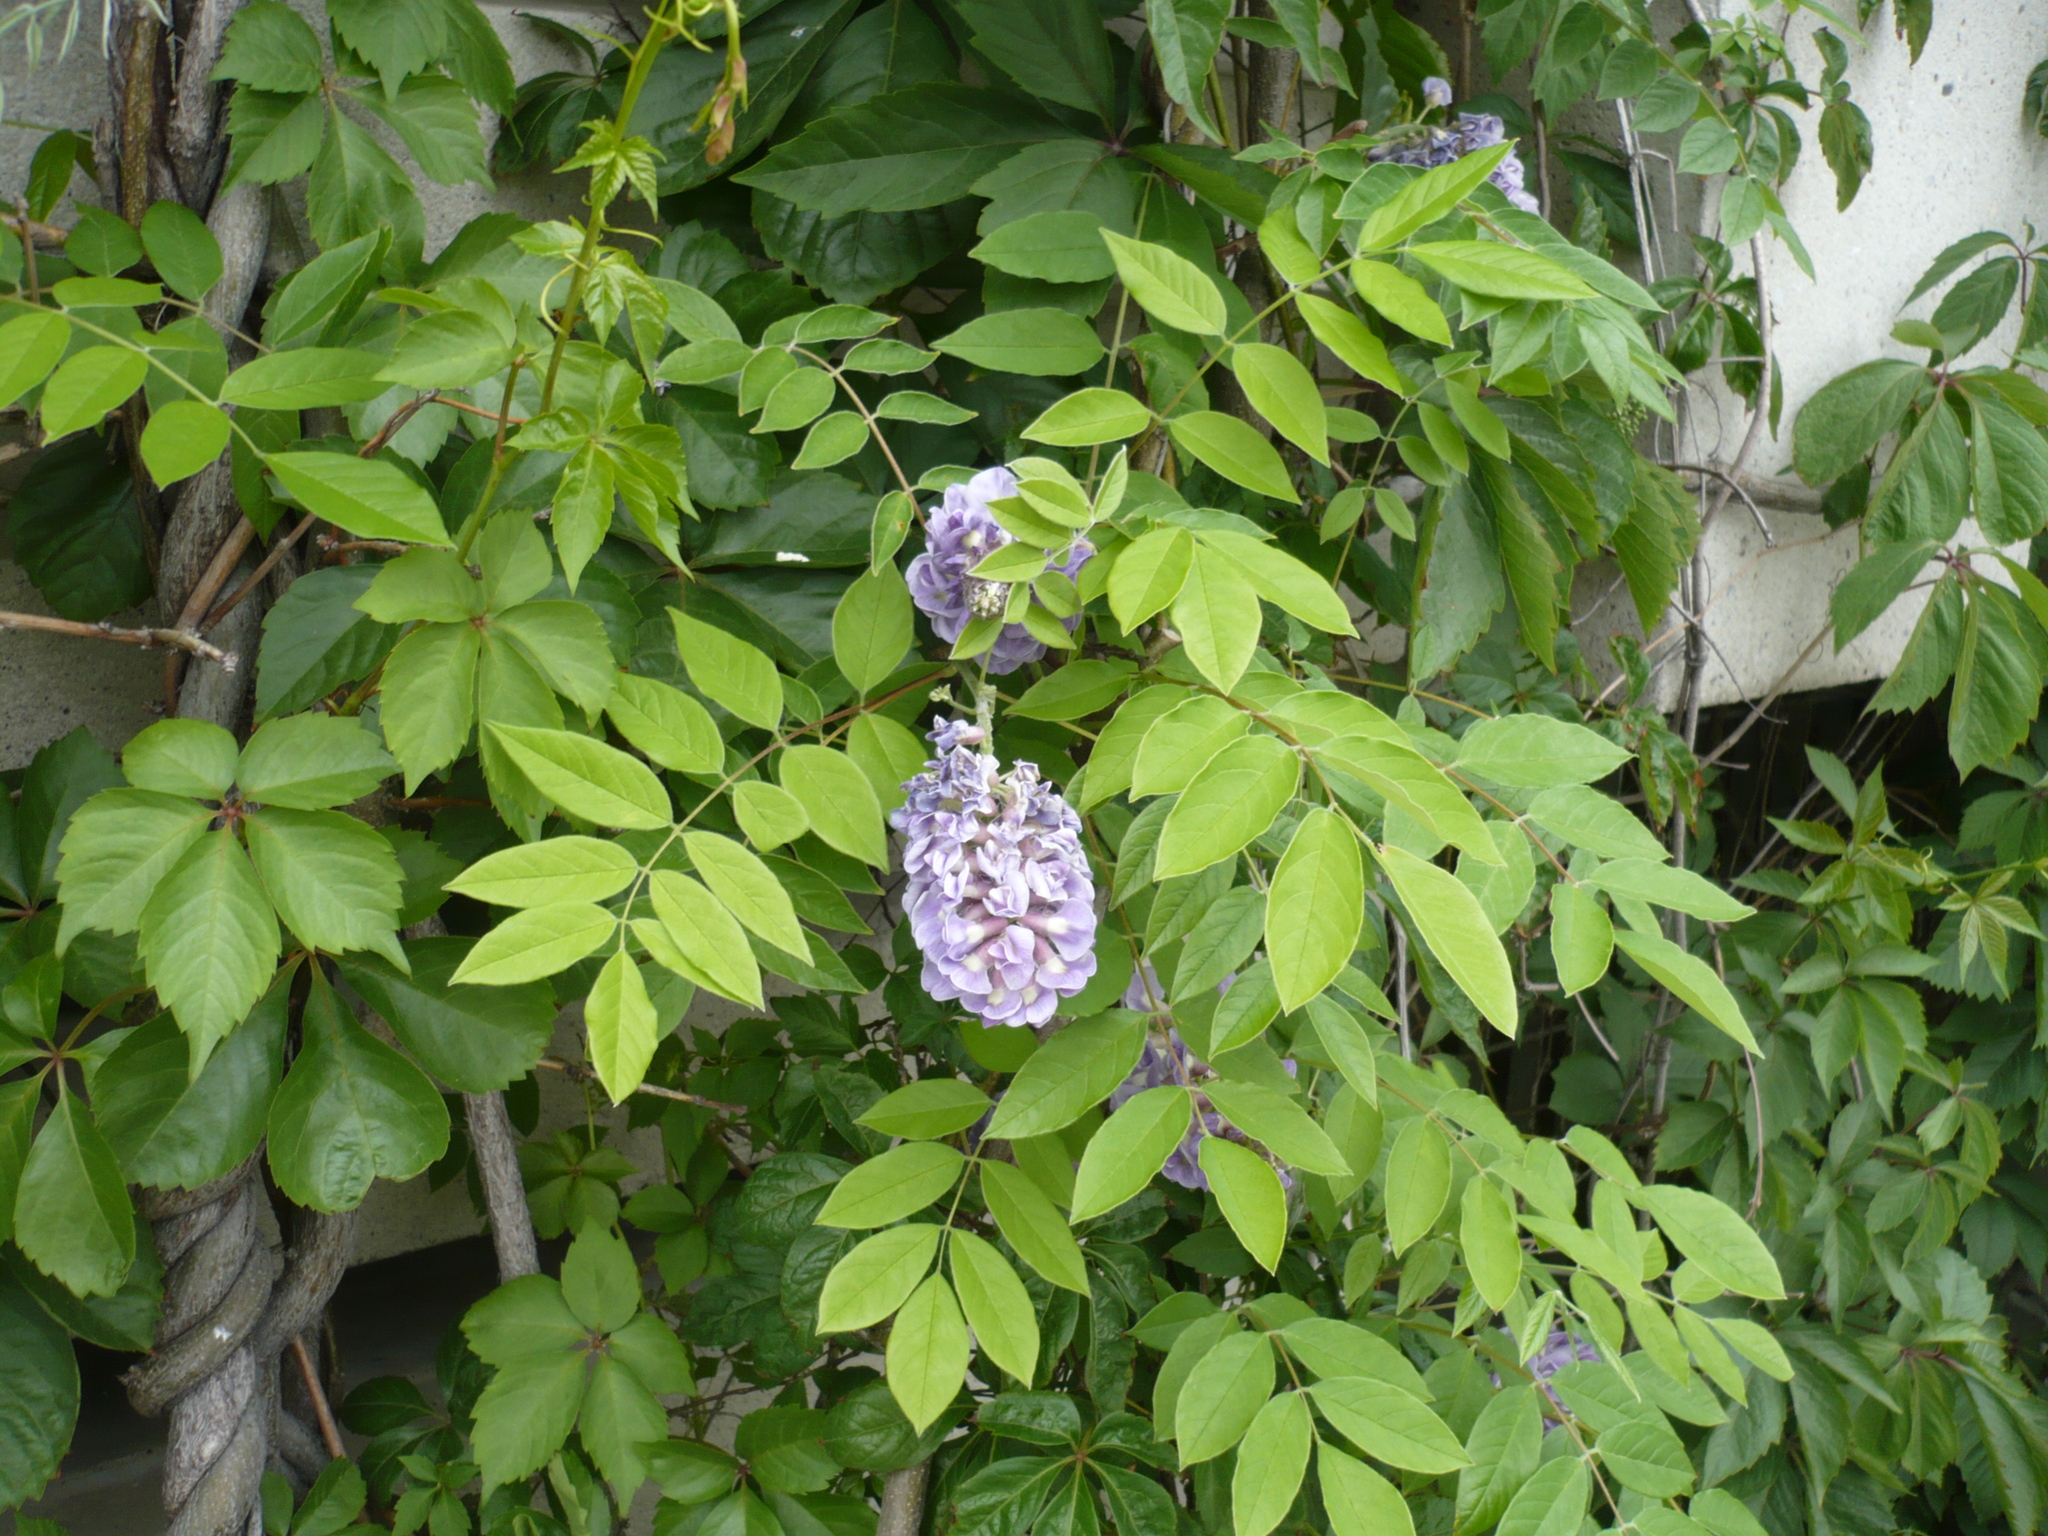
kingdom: Plantae
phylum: Tracheophyta
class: Magnoliopsida
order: Fabales
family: Fabaceae
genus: Wisteria
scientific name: Wisteria frutescens
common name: American wisteria
